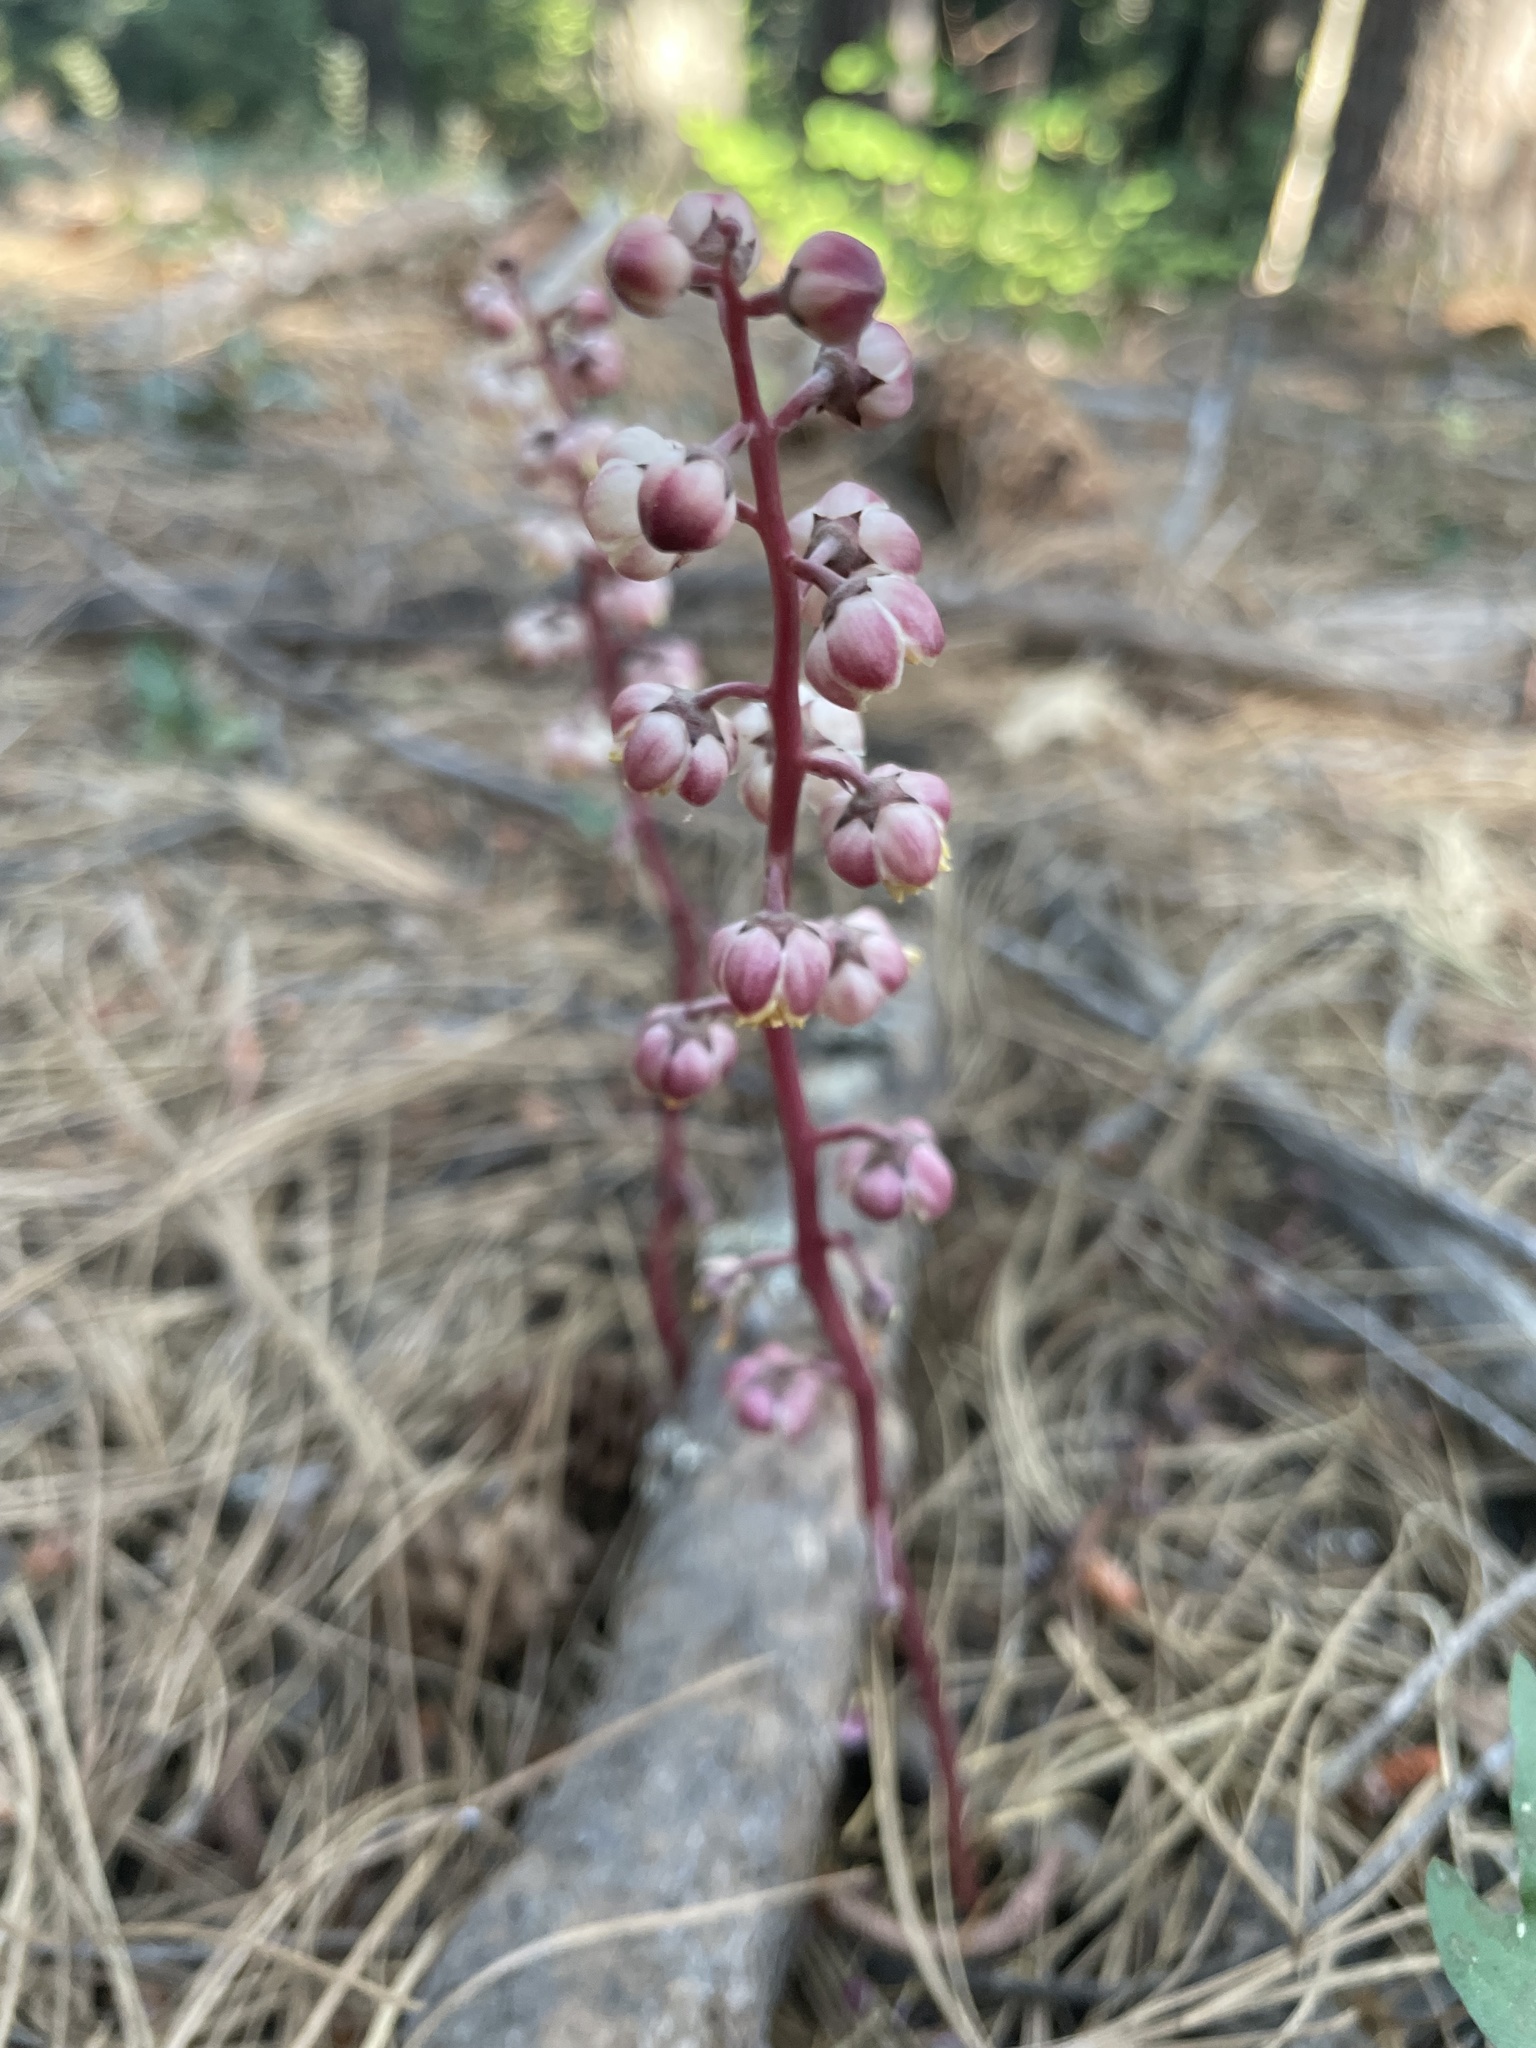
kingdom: Plantae
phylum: Tracheophyta
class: Magnoliopsida
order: Ericales
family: Ericaceae
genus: Pyrola
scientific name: Pyrola aphylla
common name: Leafless wintergreen
